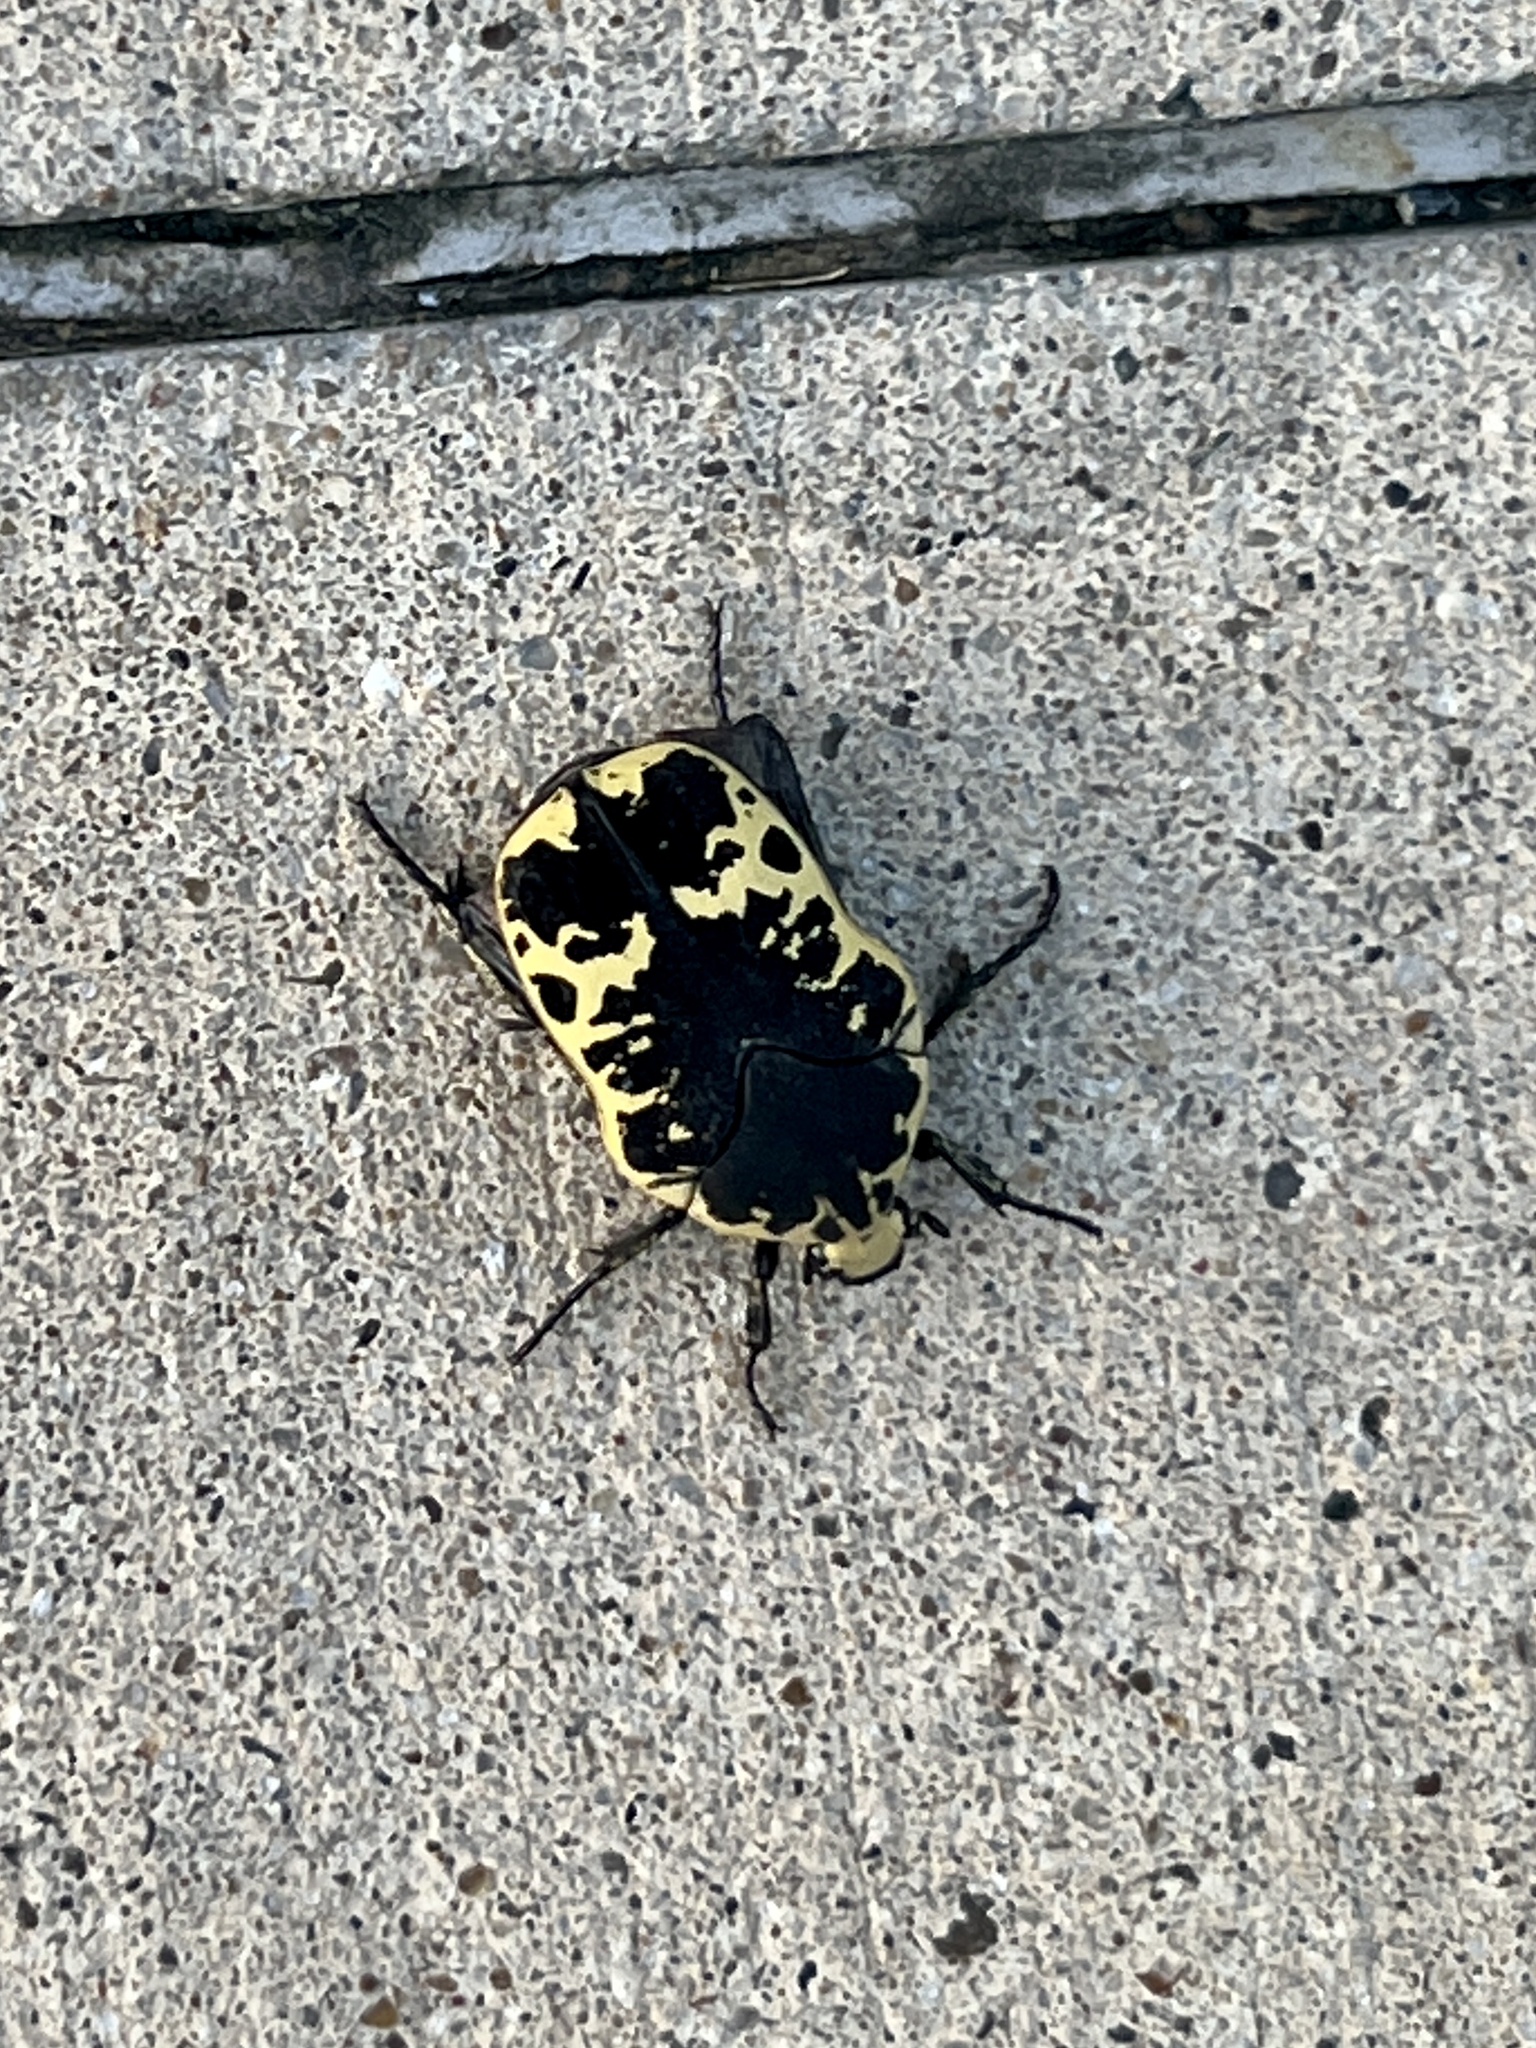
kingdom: Animalia
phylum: Arthropoda
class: Insecta
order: Coleoptera
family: Scarabaeidae
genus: Gymnetis
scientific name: Gymnetis thula
